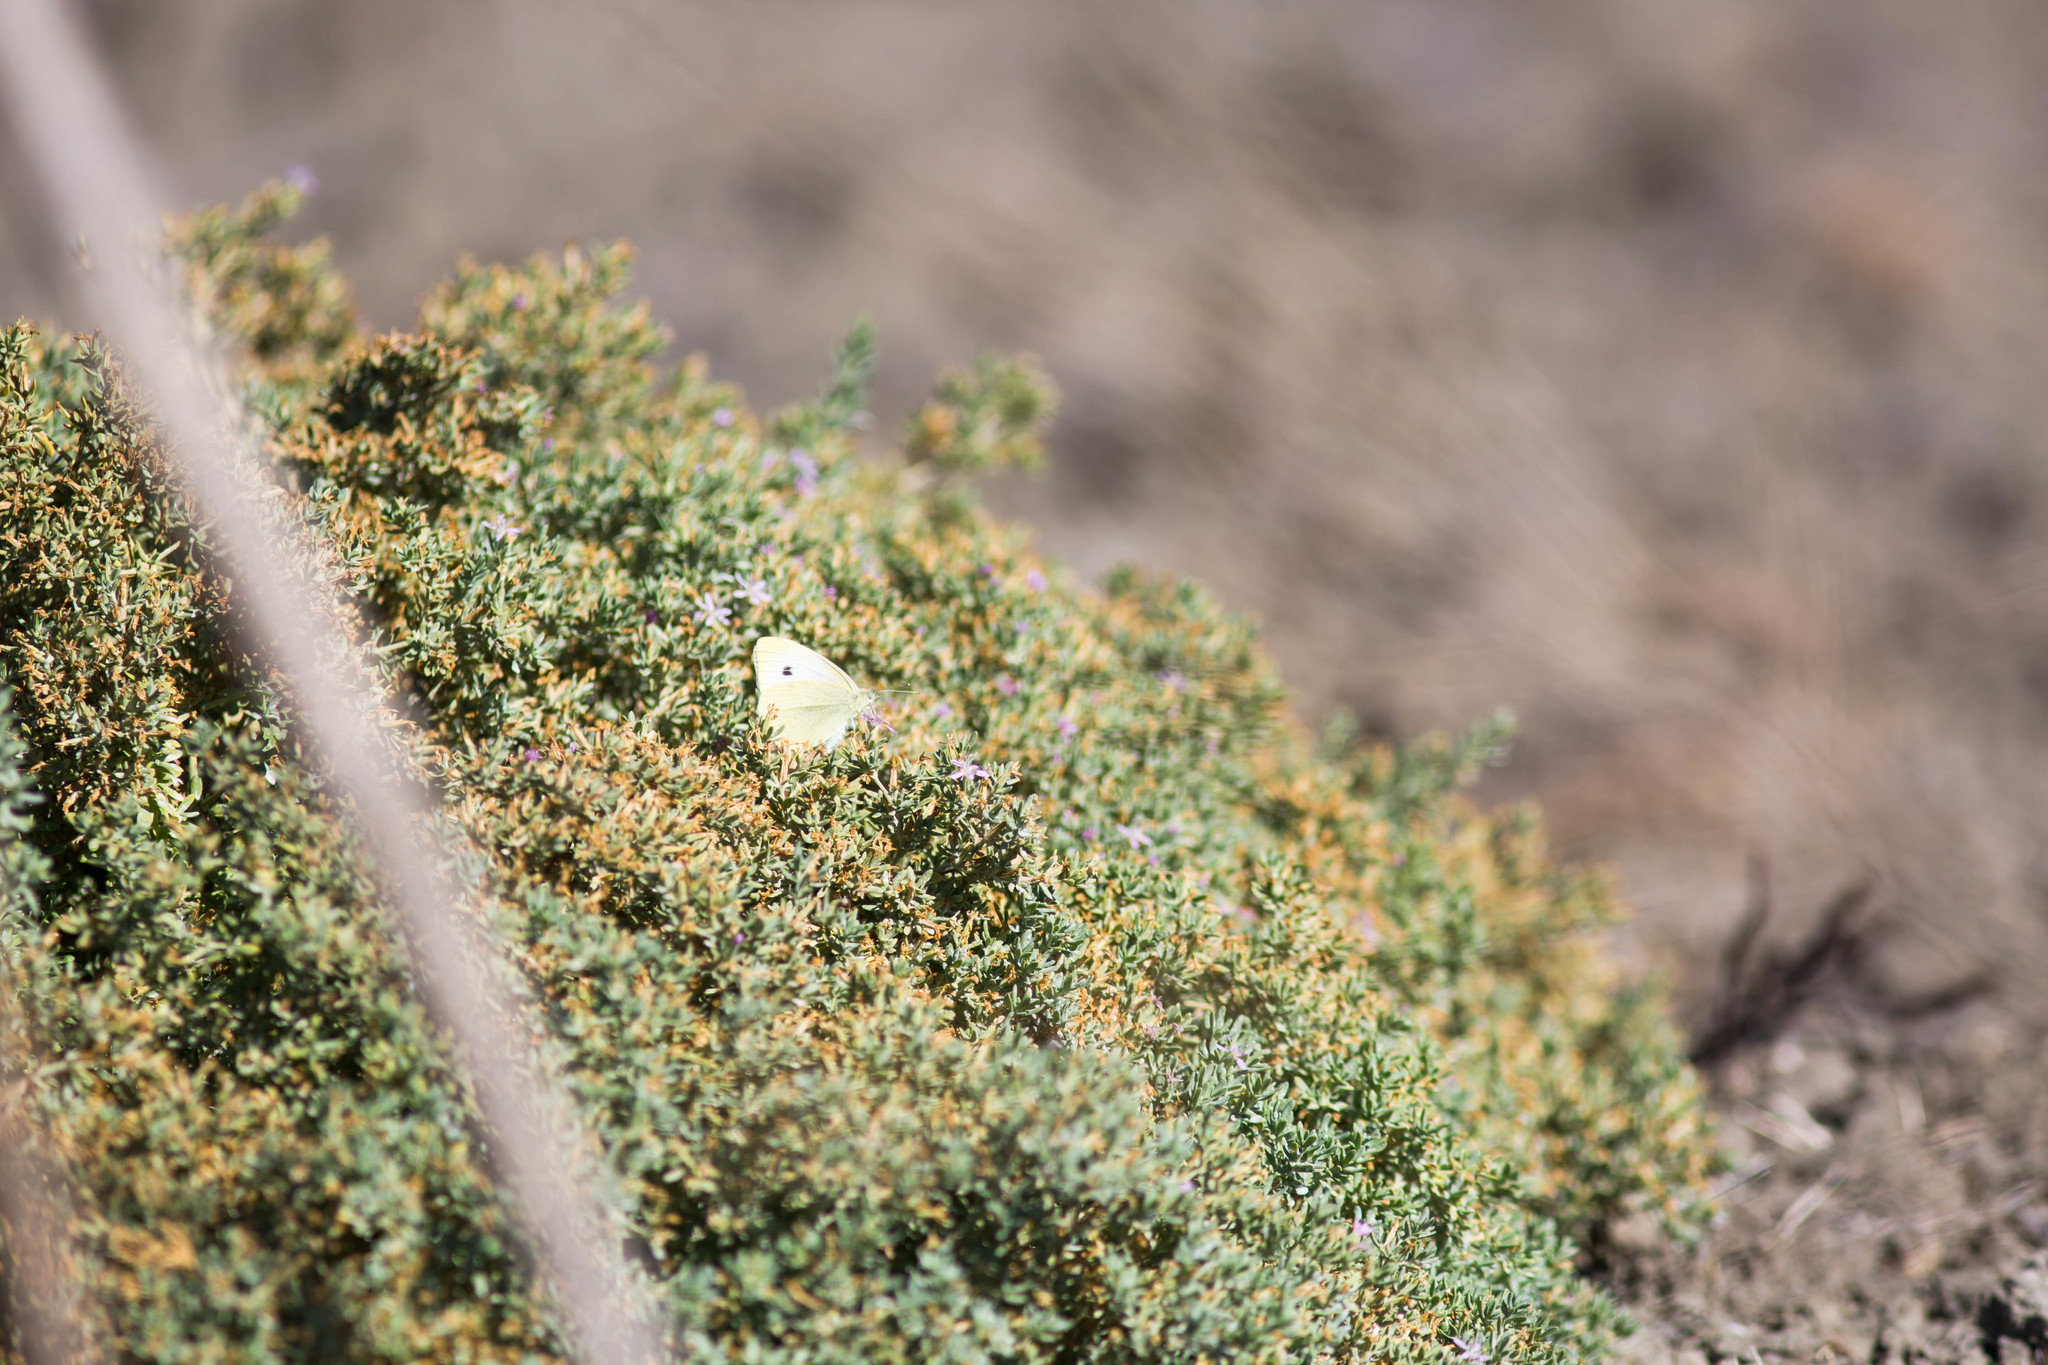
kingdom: Animalia
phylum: Arthropoda
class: Insecta
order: Lepidoptera
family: Pieridae
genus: Pieris
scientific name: Pieris rapae
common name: Small white
